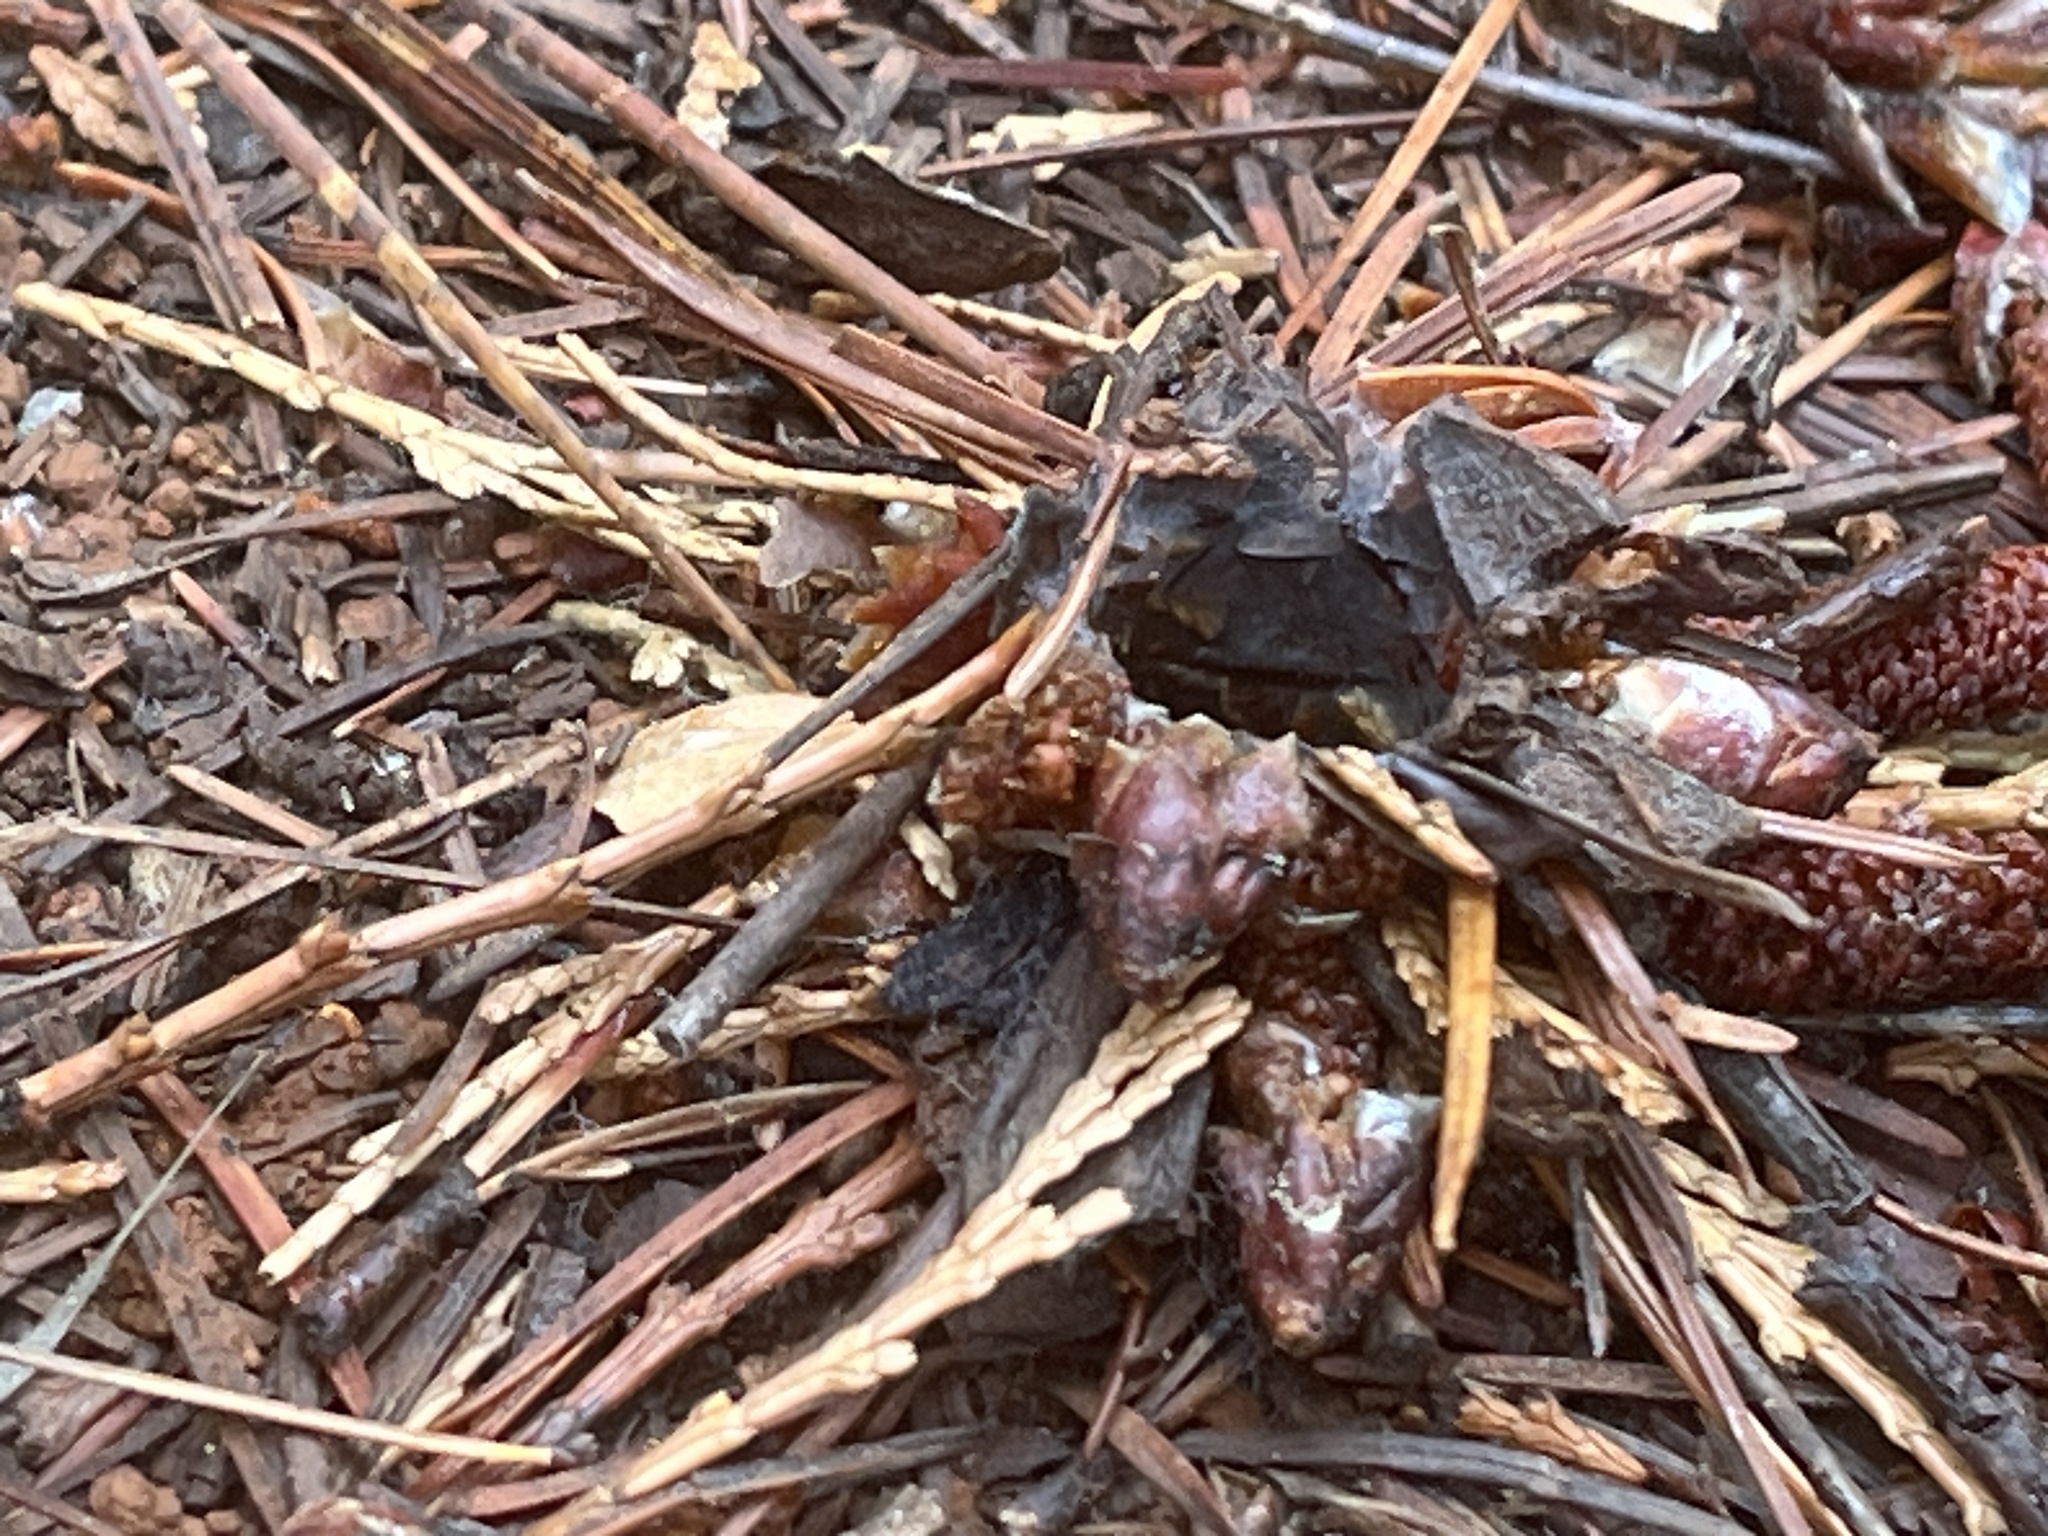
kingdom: Animalia
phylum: Arthropoda
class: Arachnida
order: Araneae
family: Antrodiaetidae
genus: Atypoides
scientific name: Atypoides riversi
